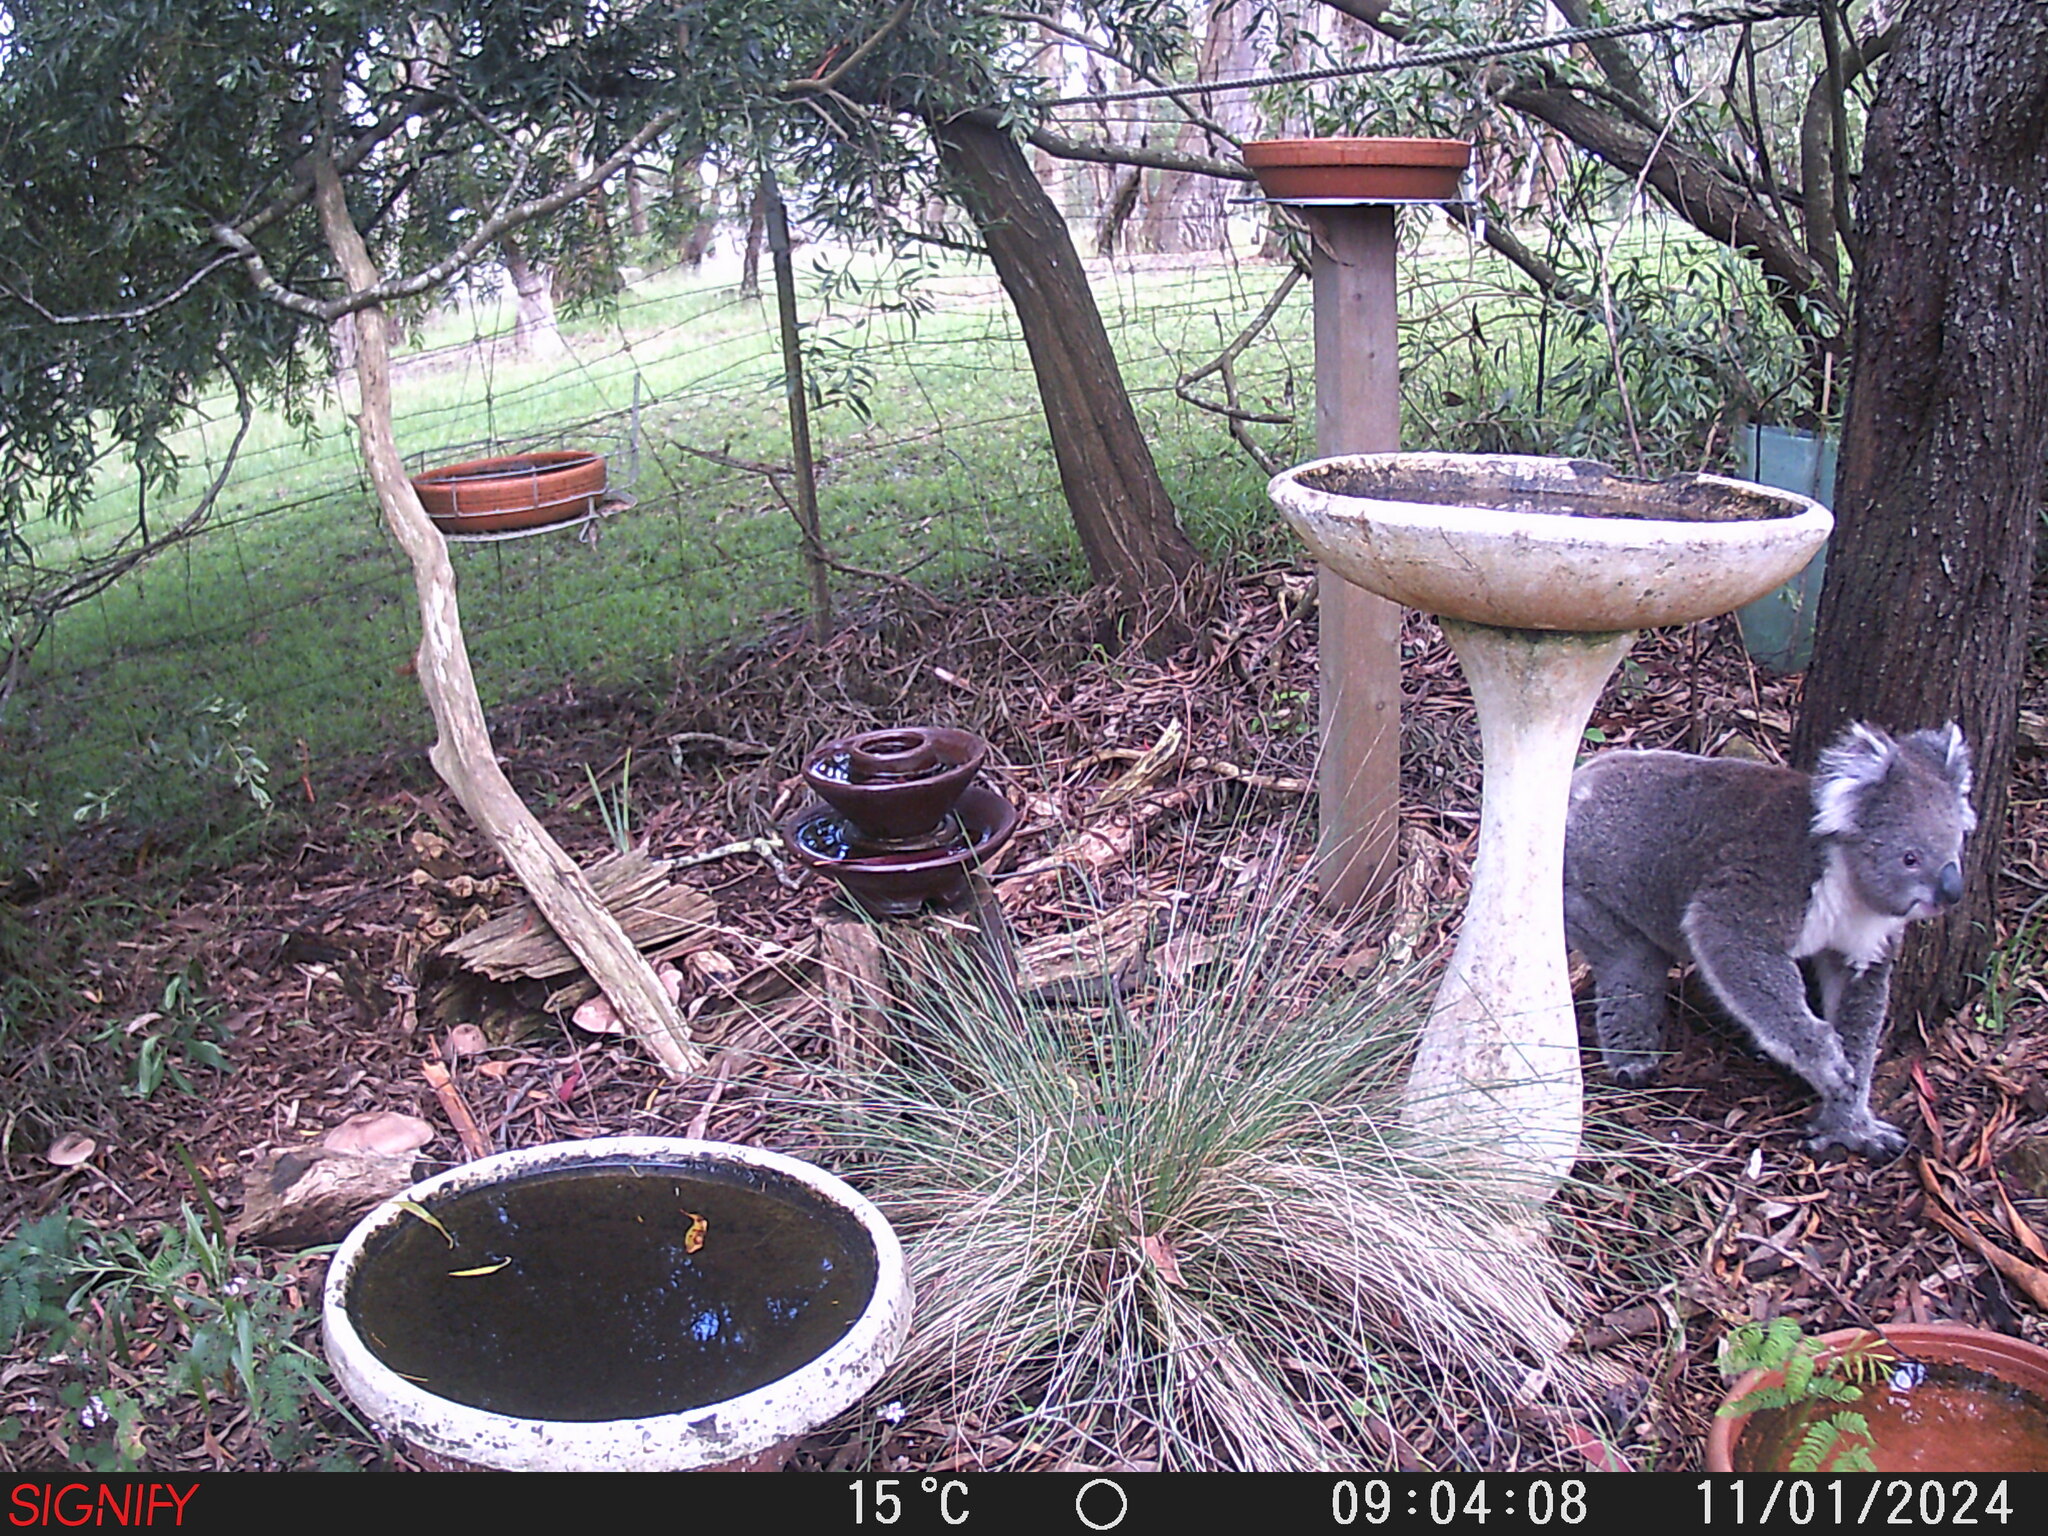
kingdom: Animalia
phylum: Chordata
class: Mammalia
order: Diprotodontia
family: Phascolarctidae
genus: Phascolarctos
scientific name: Phascolarctos cinereus
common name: Koala
